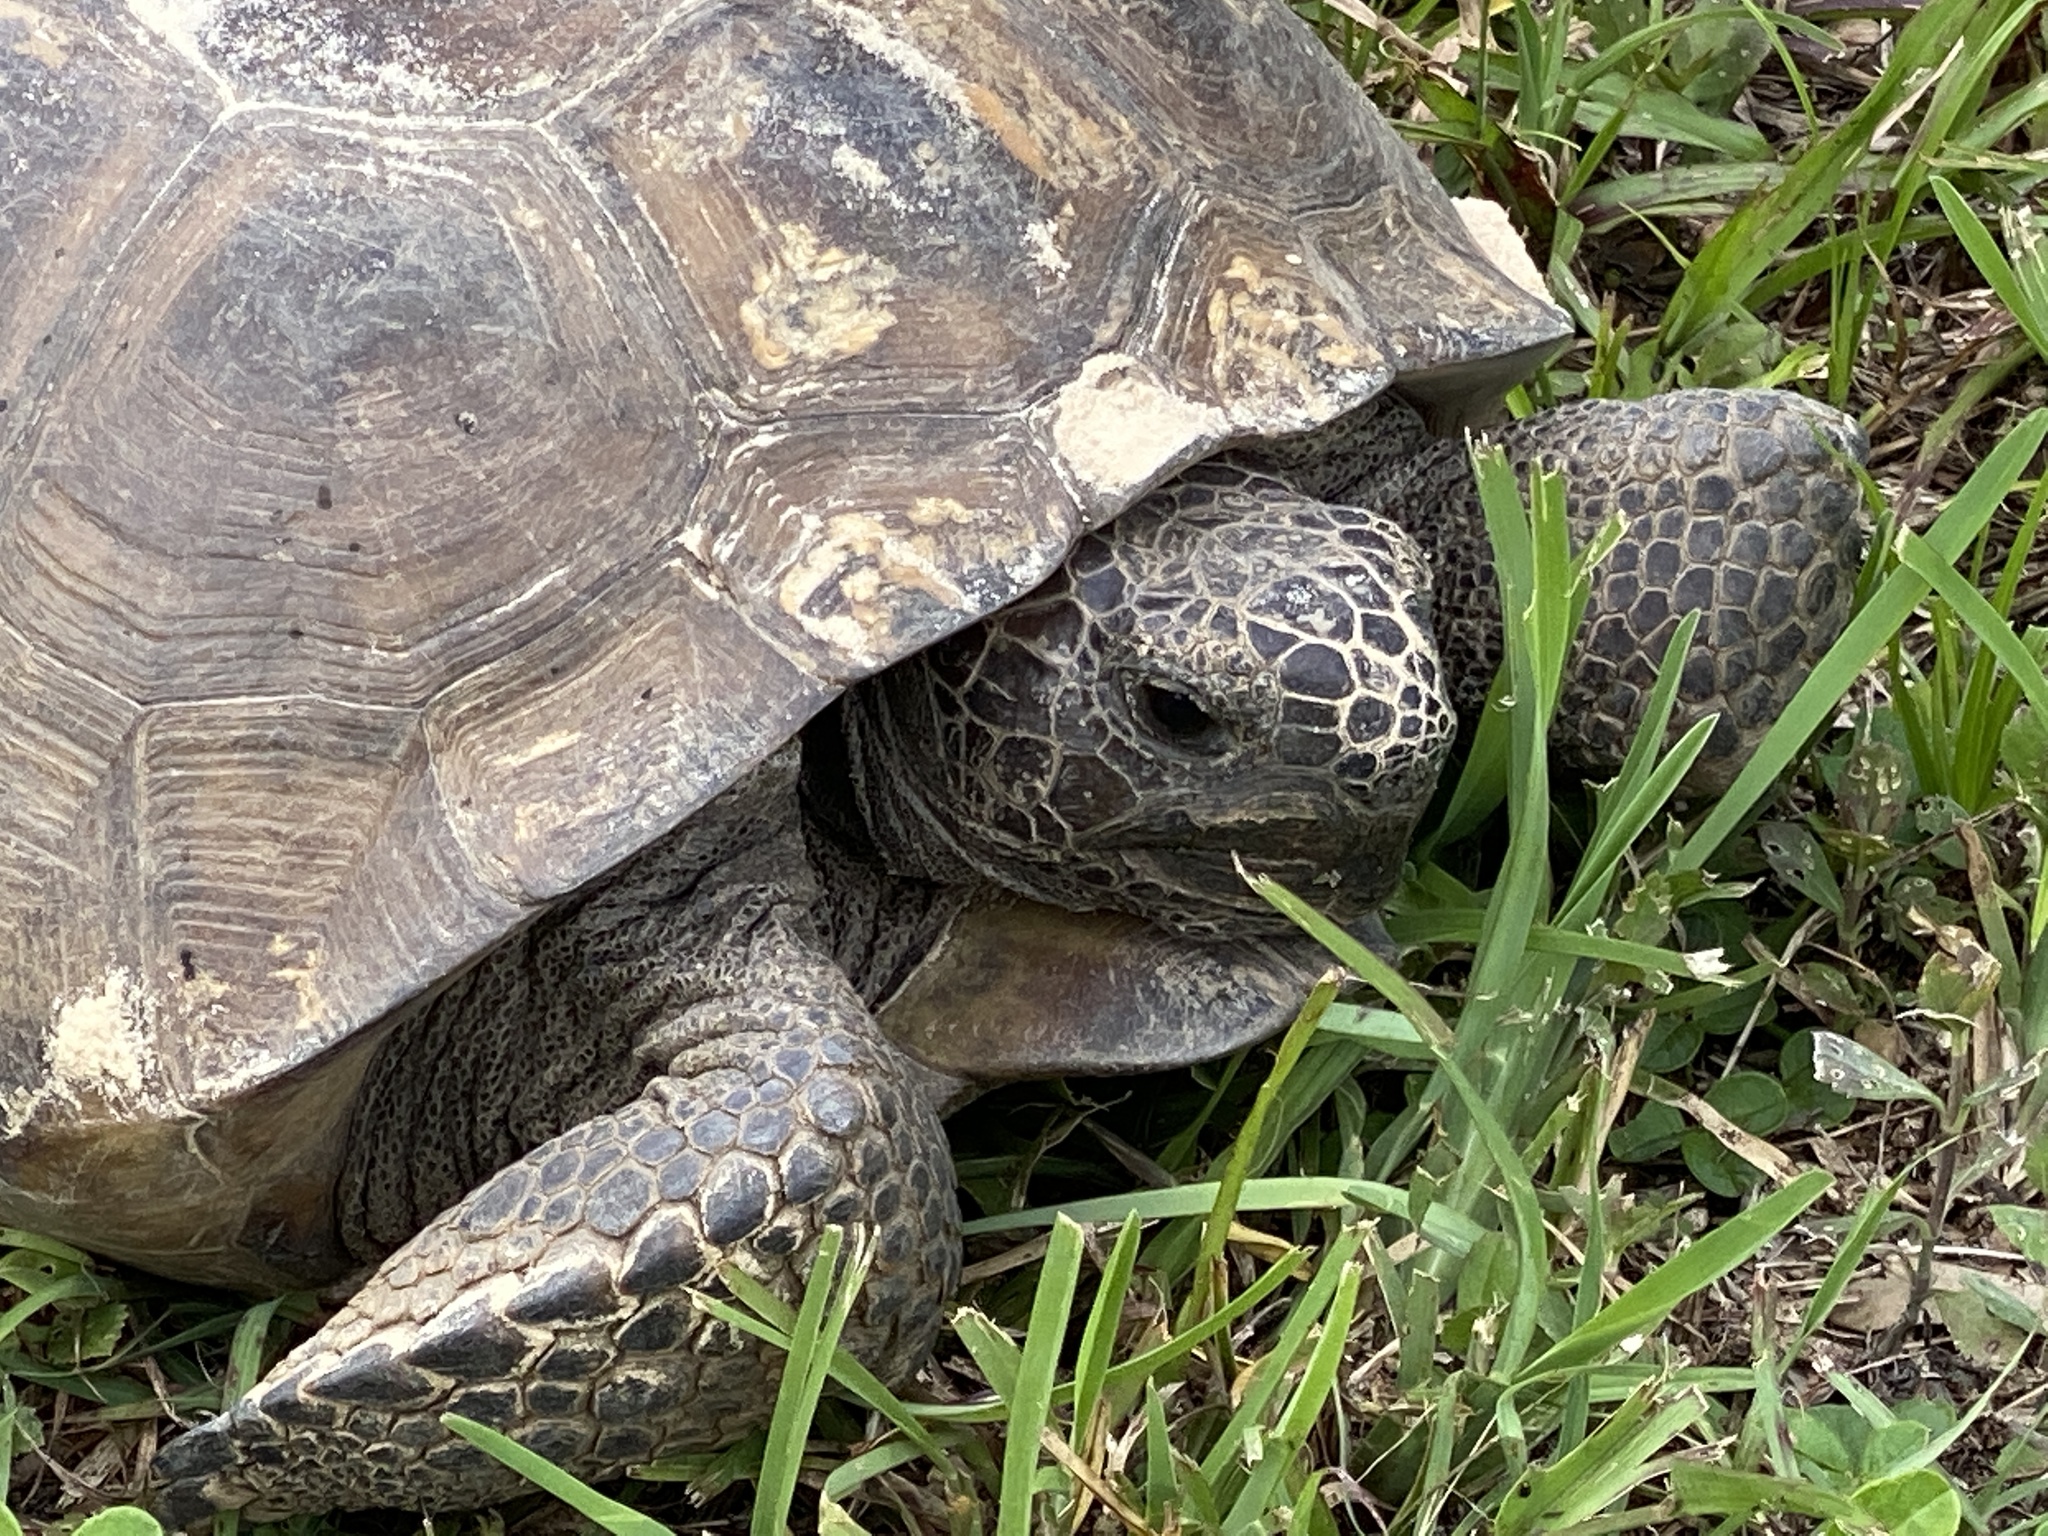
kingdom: Animalia
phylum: Chordata
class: Testudines
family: Testudinidae
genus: Gopherus
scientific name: Gopherus polyphemus
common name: Florida gopher tortoise
